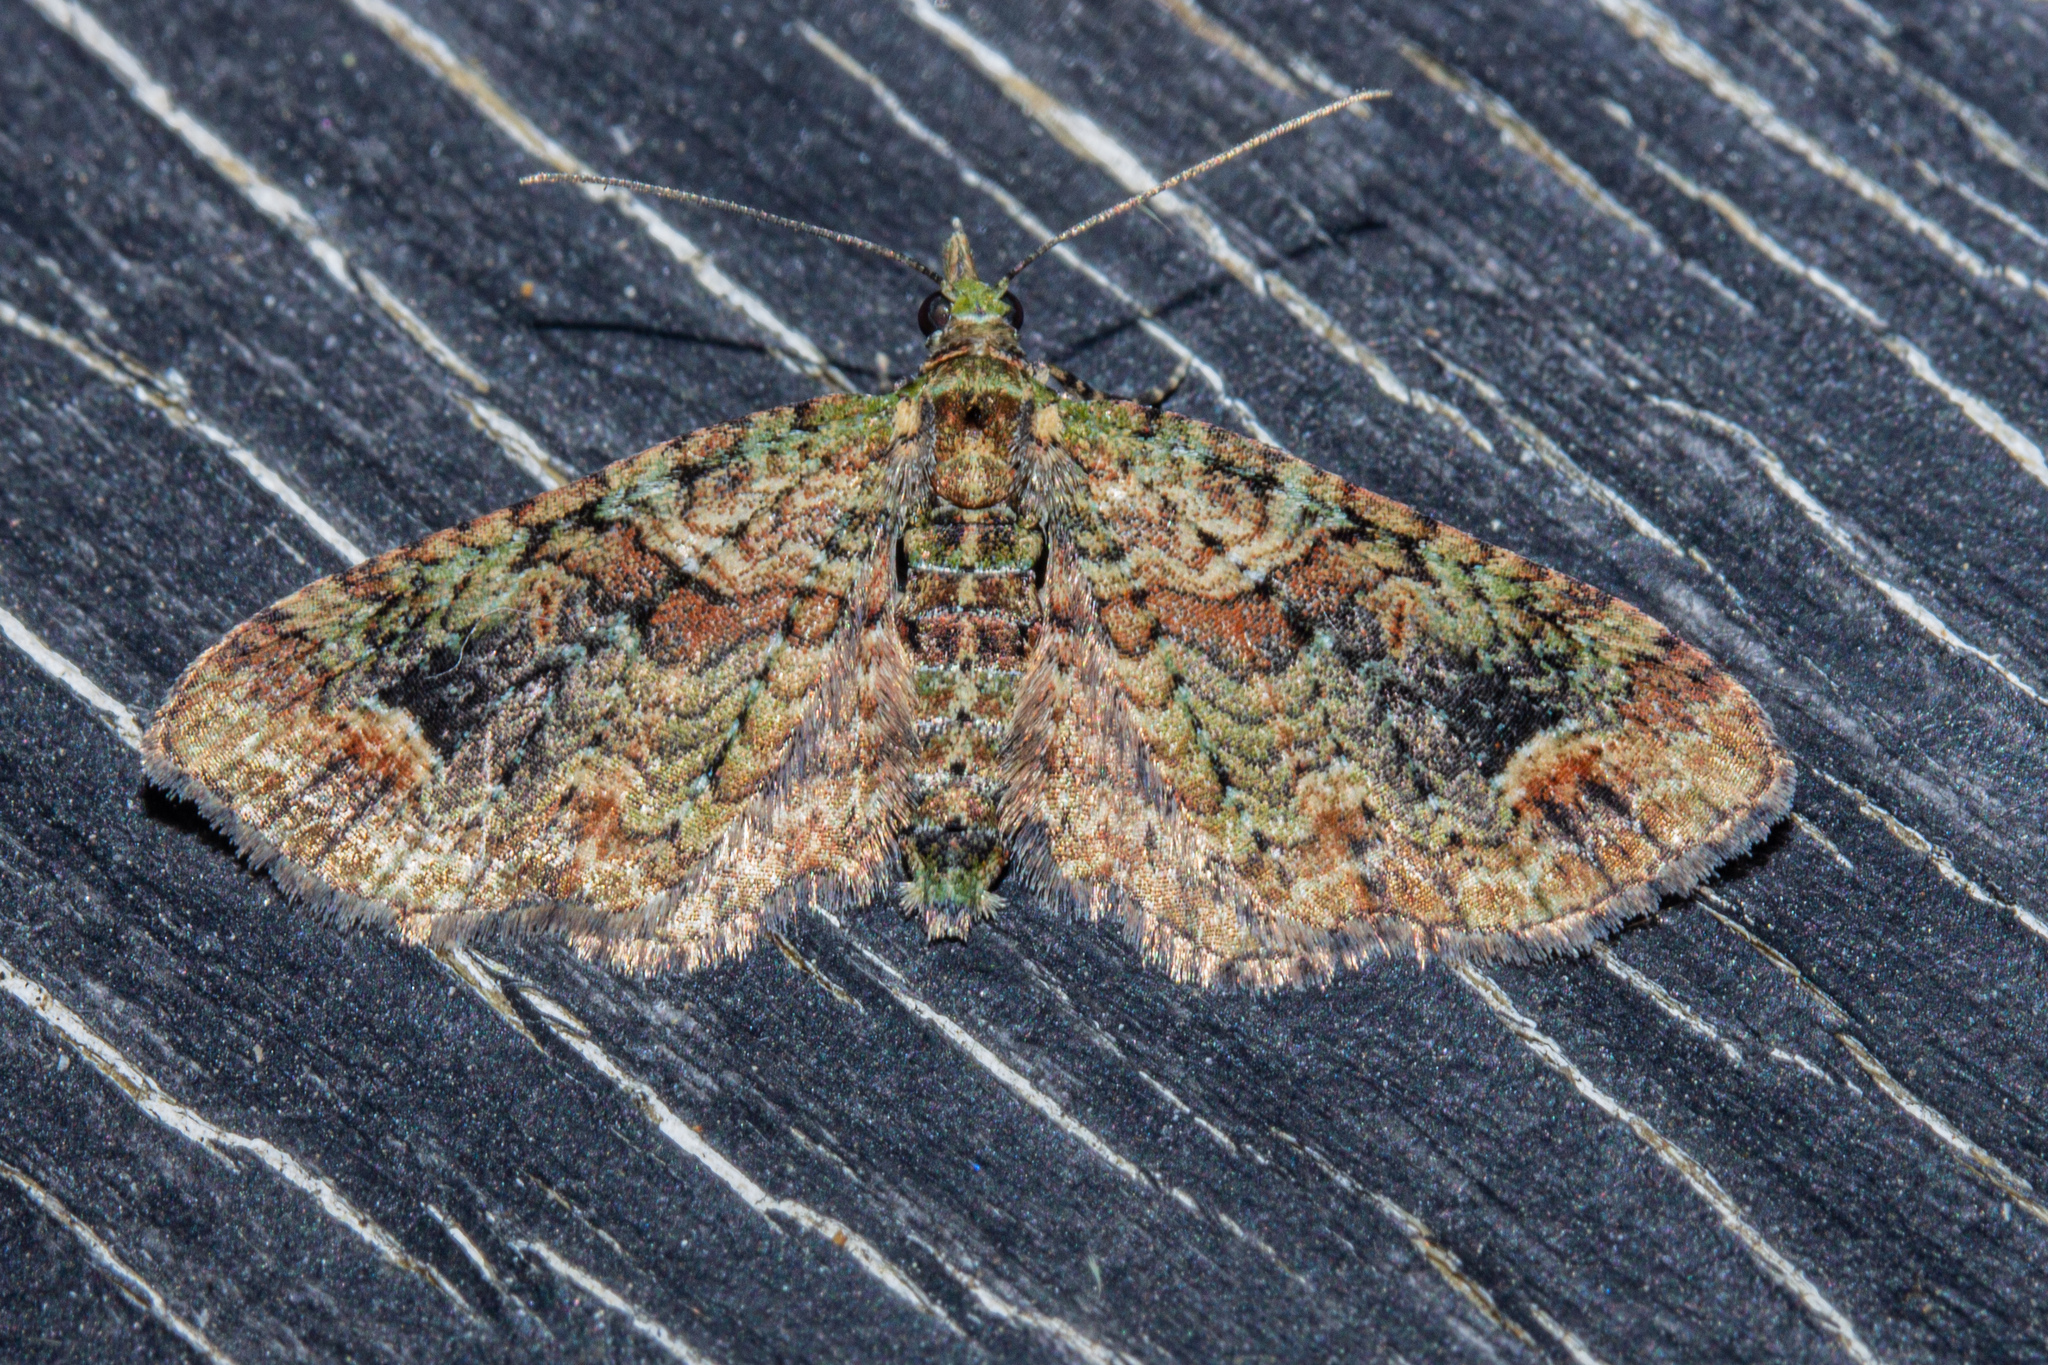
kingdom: Animalia
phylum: Arthropoda
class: Insecta
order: Lepidoptera
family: Geometridae
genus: Idaea
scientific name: Idaea mutanda
